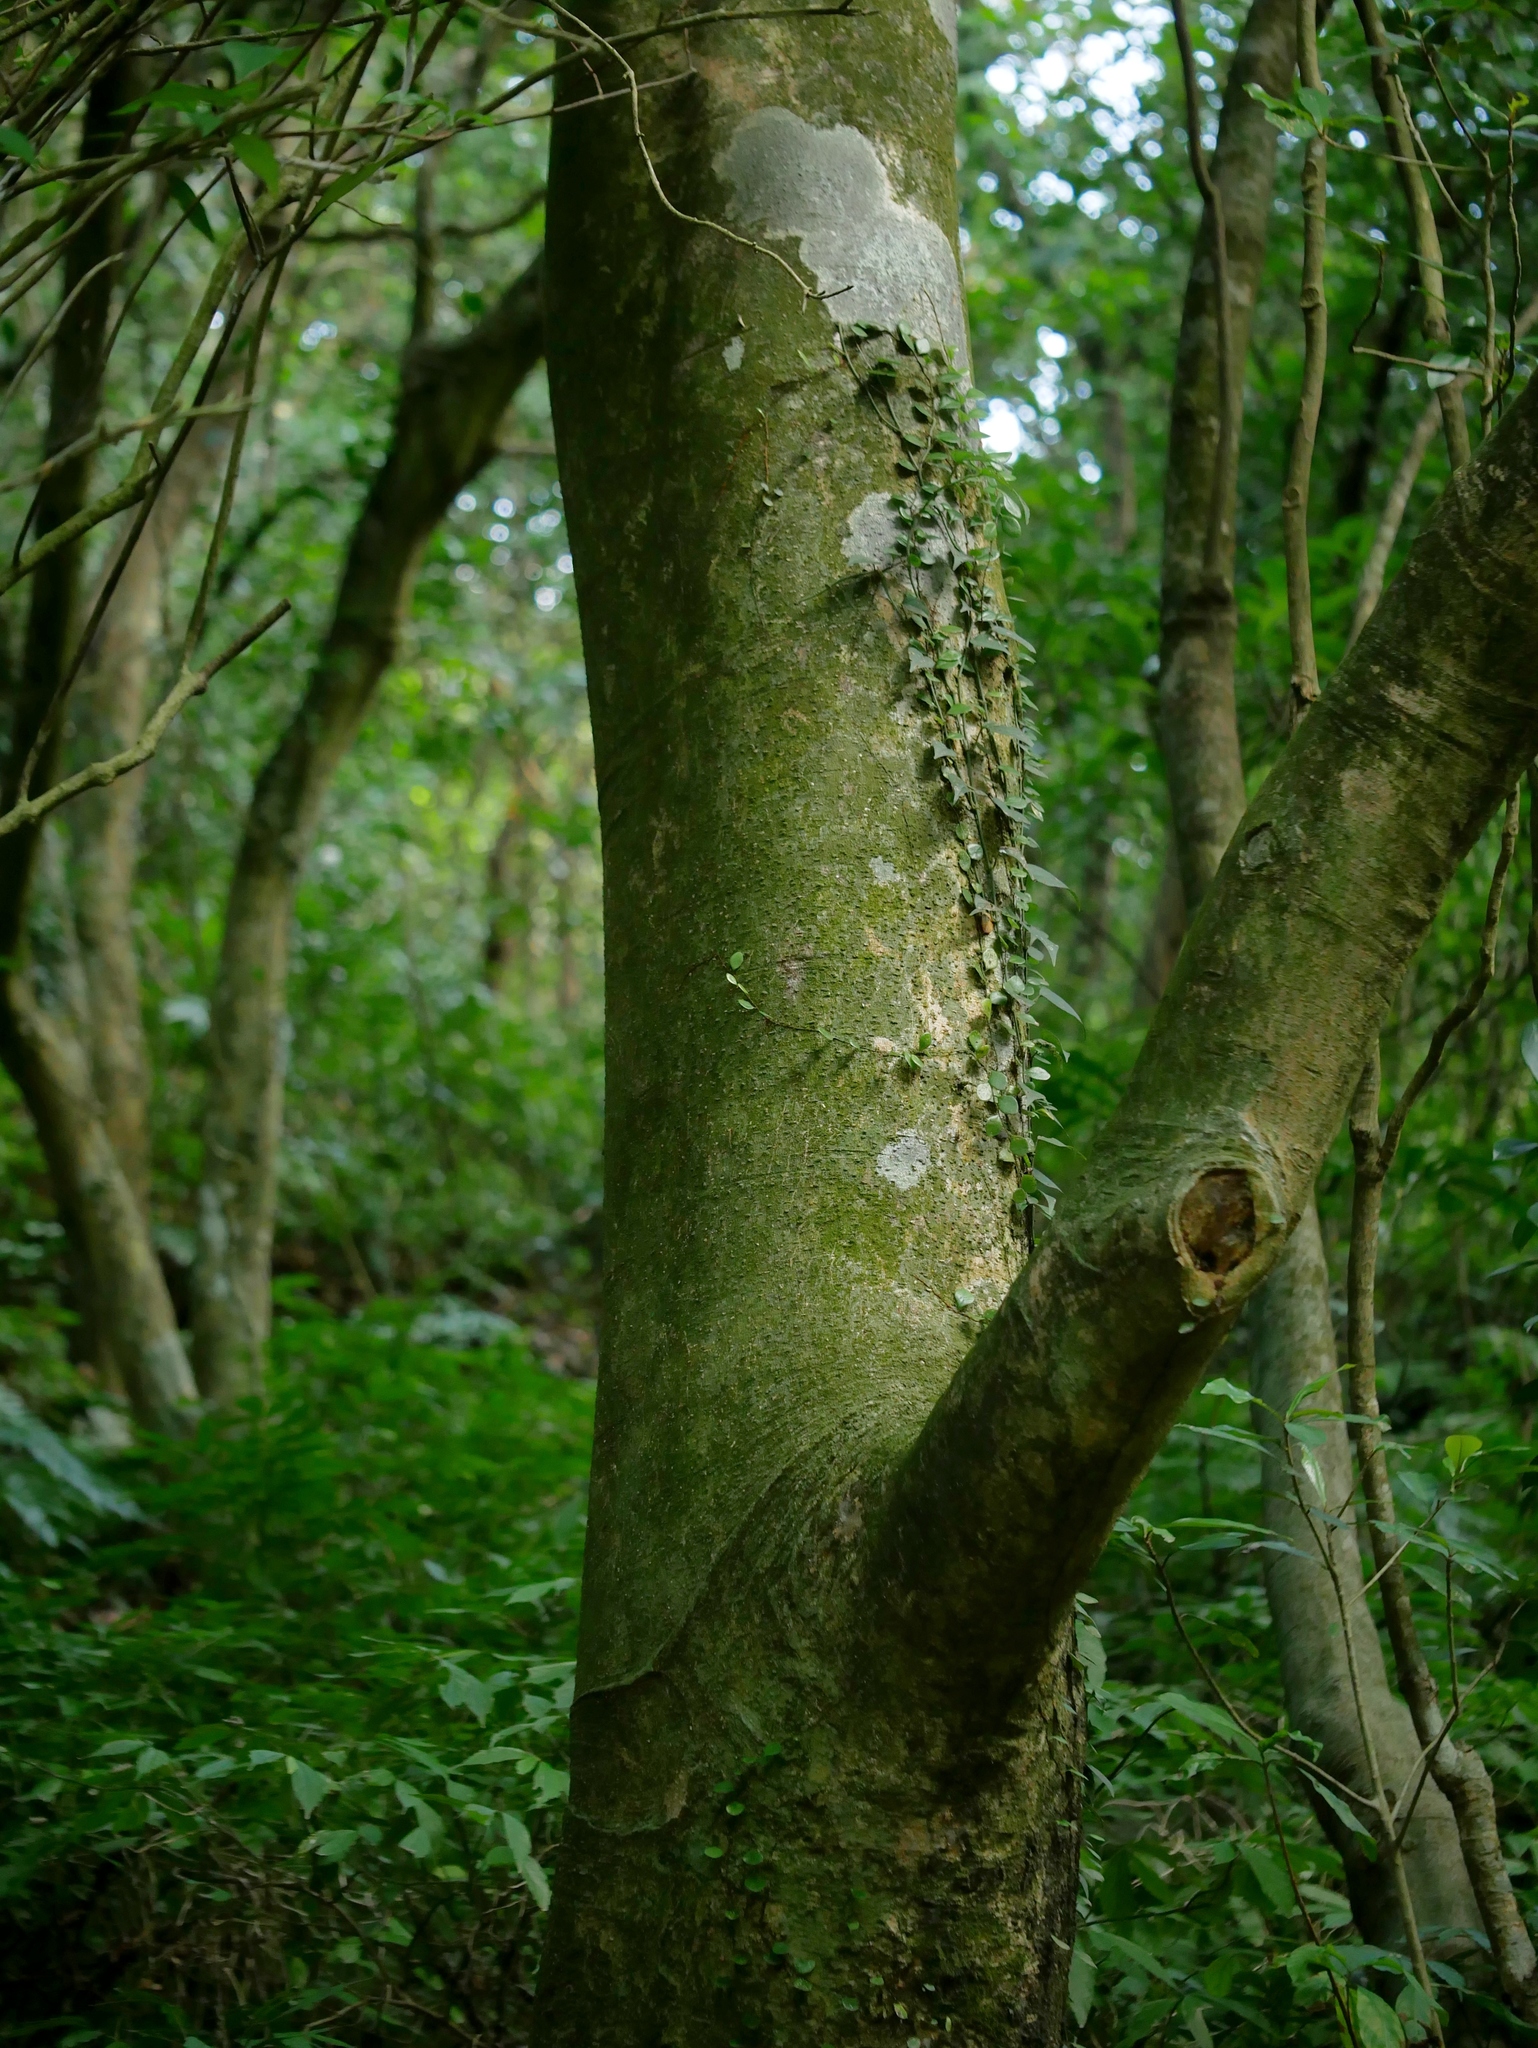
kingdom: Plantae
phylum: Tracheophyta
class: Magnoliopsida
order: Brassicales
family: Capparaceae
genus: Crateva
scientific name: Crateva formosensis
